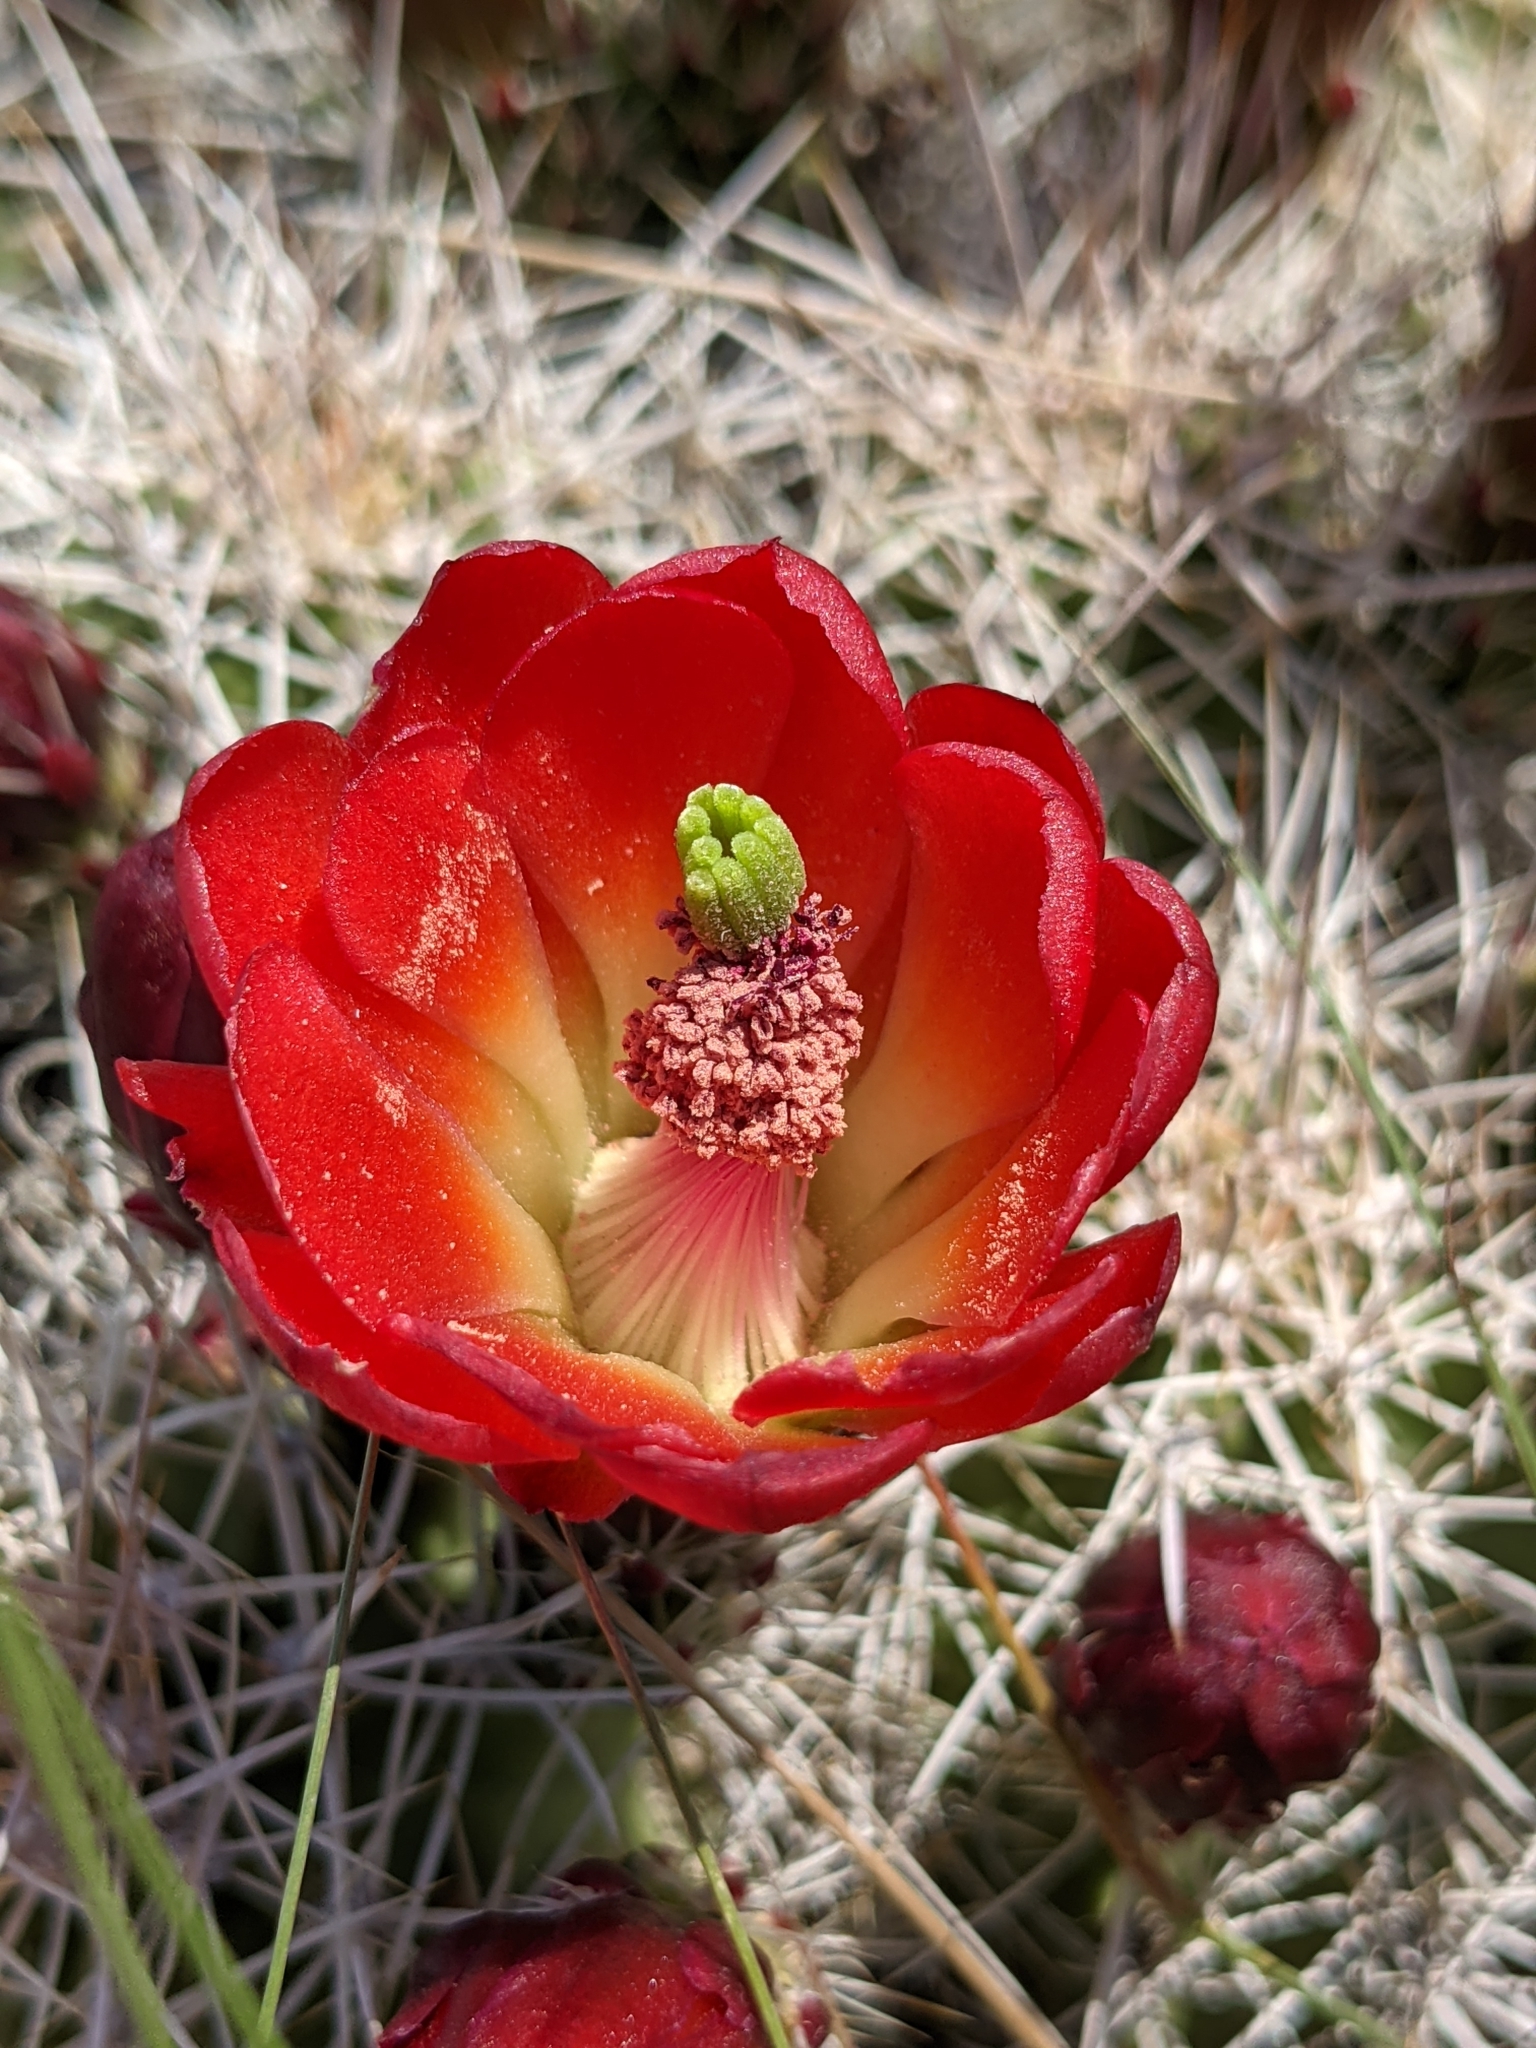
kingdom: Plantae
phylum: Tracheophyta
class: Magnoliopsida
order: Caryophyllales
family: Cactaceae
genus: Echinocereus
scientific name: Echinocereus triglochidiatus
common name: Claretcup hedgehog
